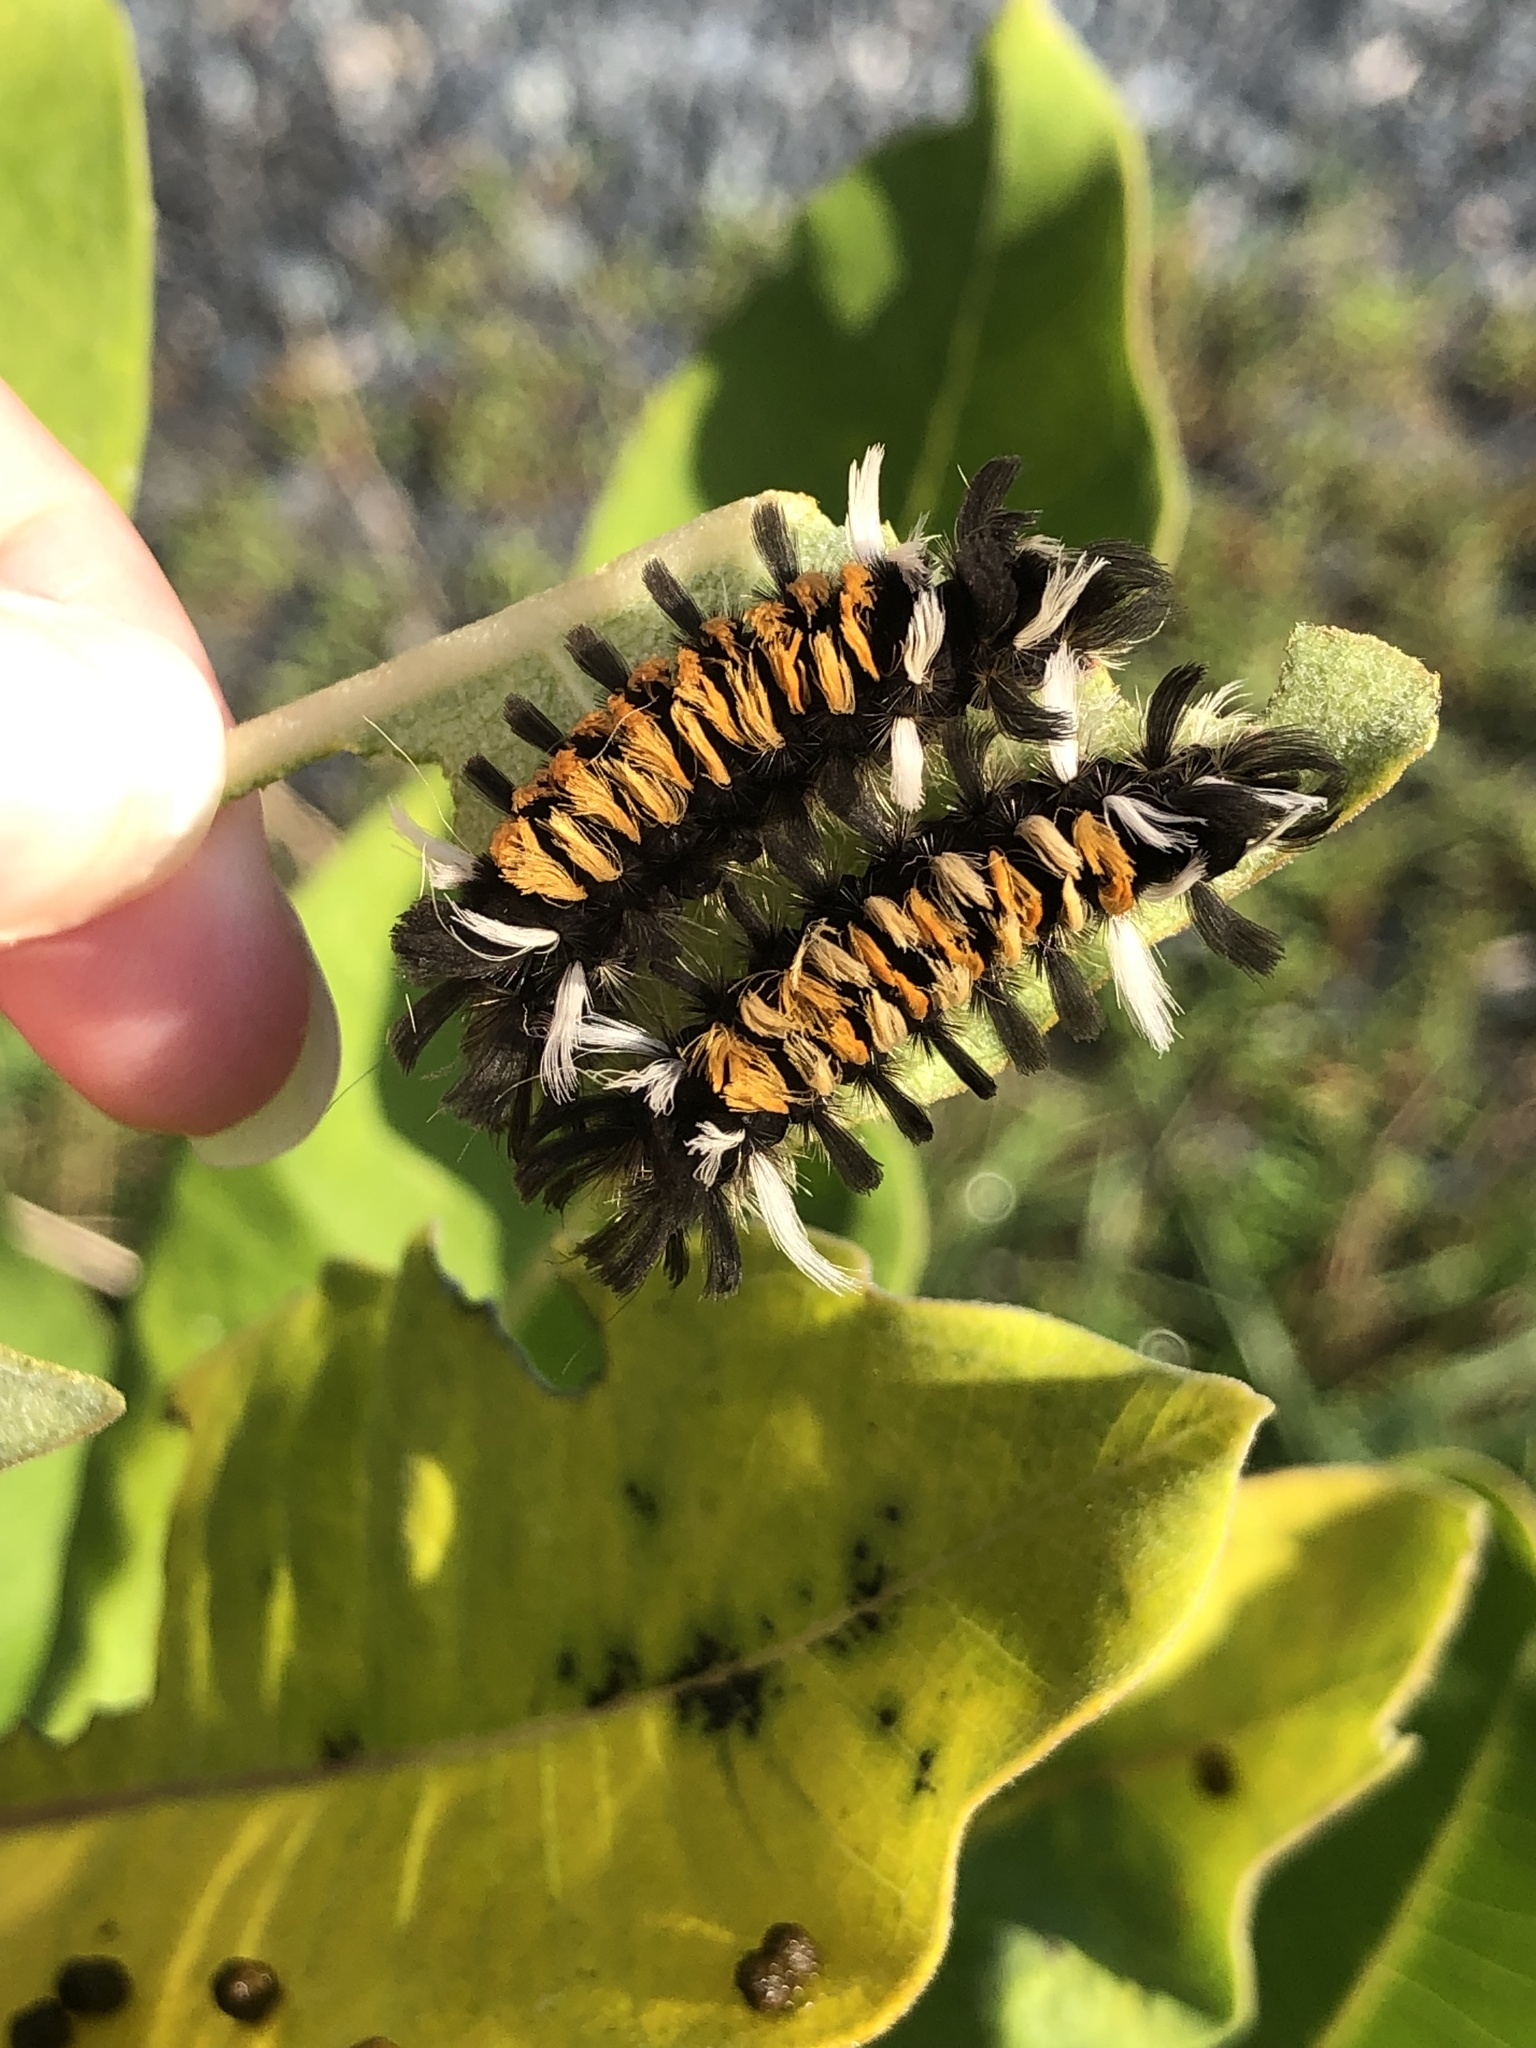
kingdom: Animalia
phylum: Arthropoda
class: Insecta
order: Lepidoptera
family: Erebidae
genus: Euchaetes
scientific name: Euchaetes egle
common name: Milkweed tussock moth
